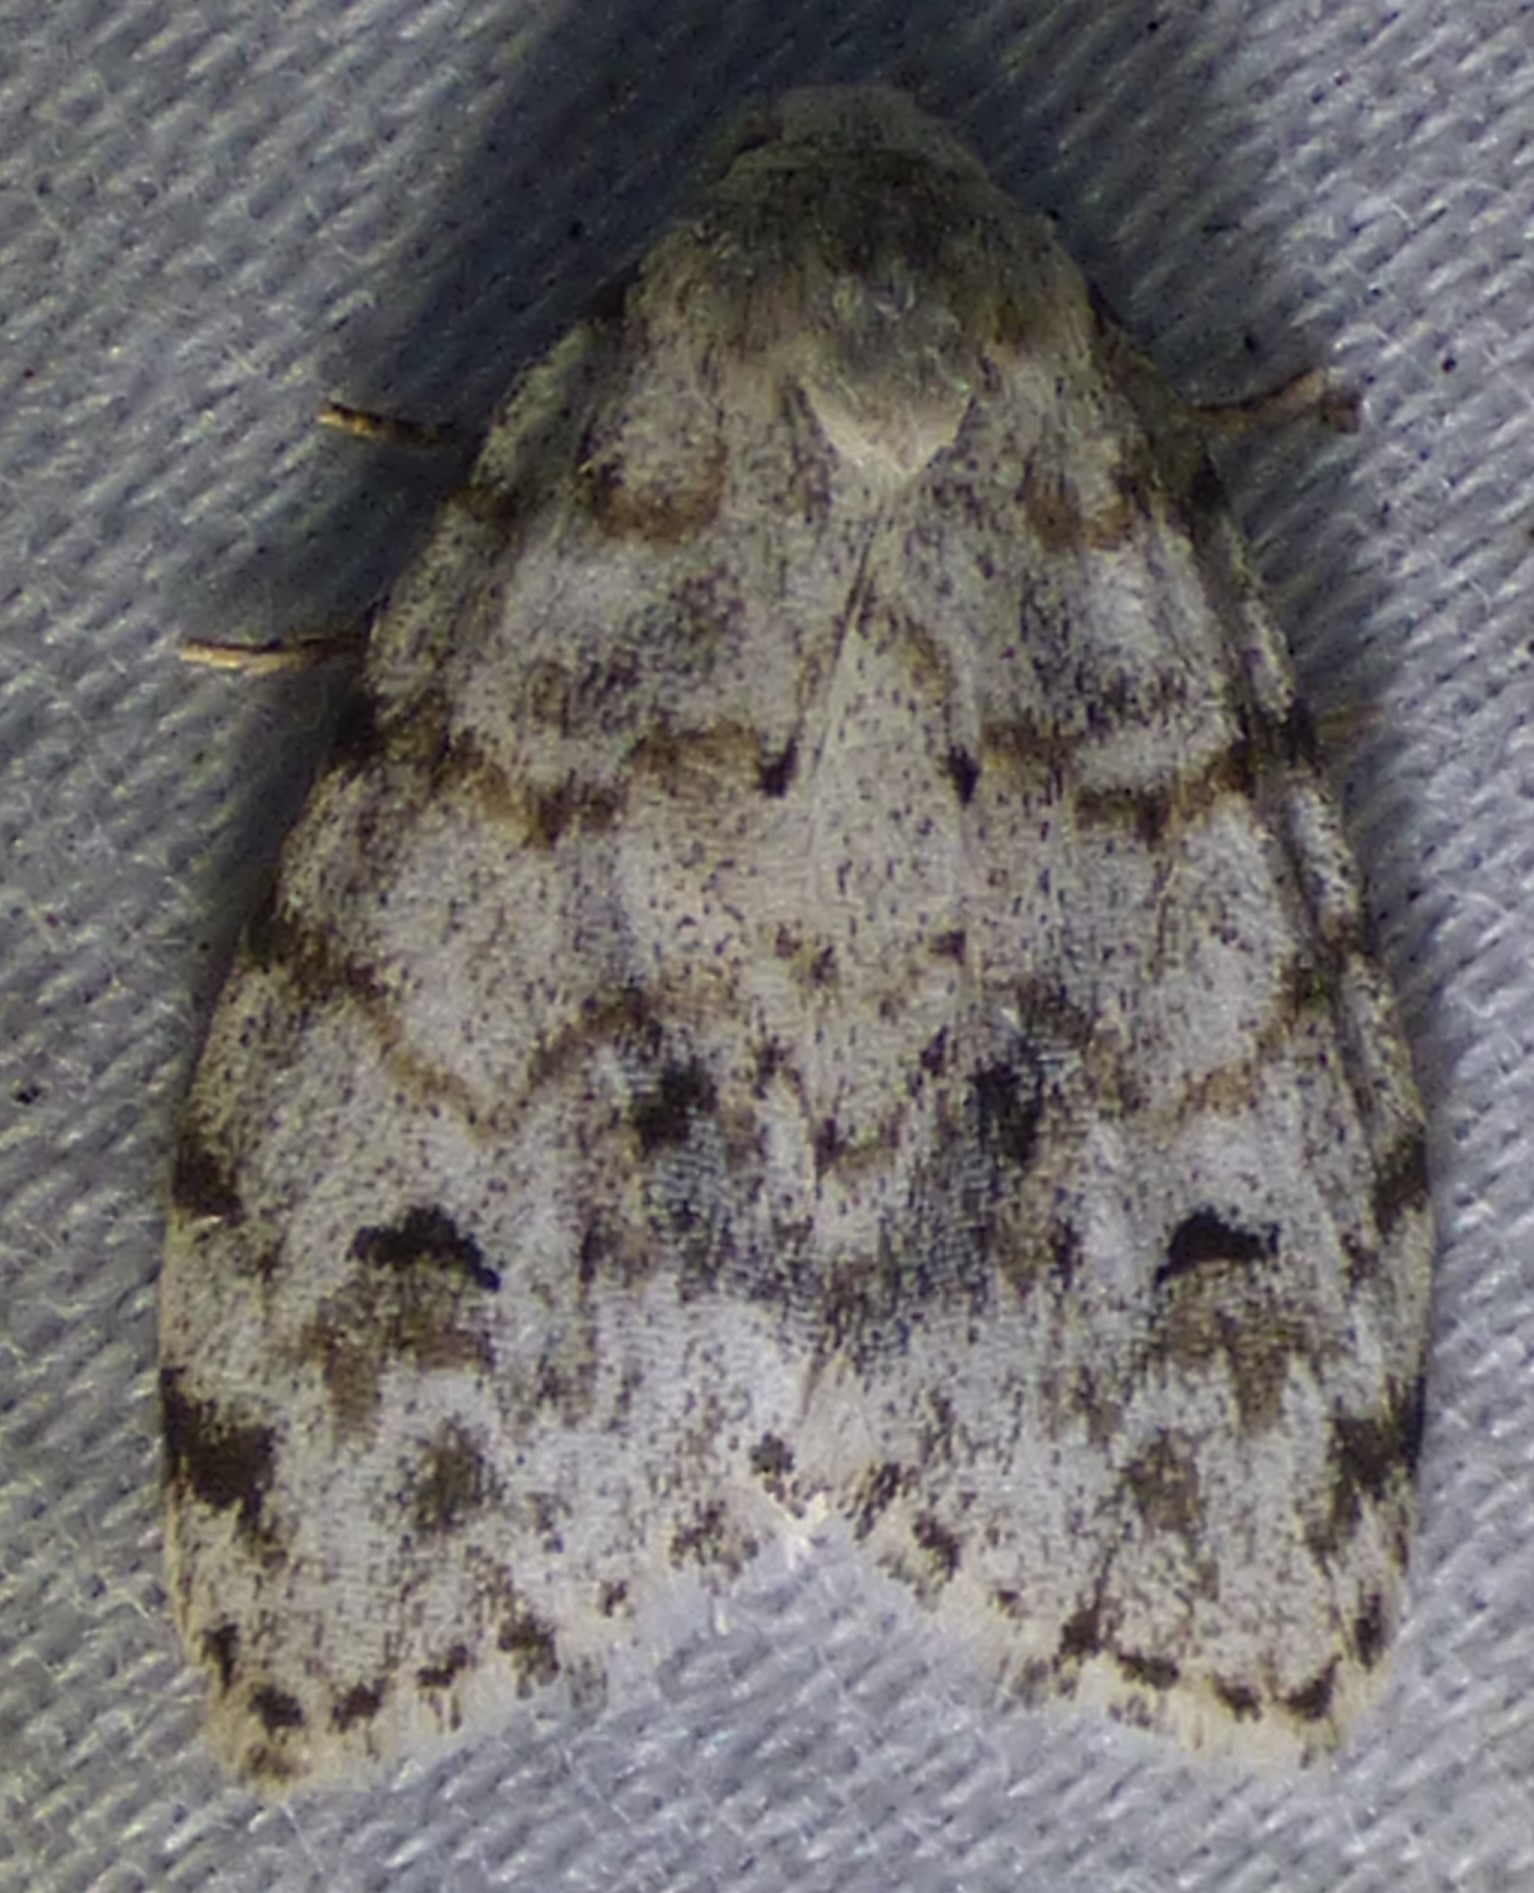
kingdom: Animalia
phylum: Arthropoda
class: Insecta
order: Lepidoptera
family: Erebidae
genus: Clemensia
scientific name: Clemensia albata
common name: Little white lichen moth
